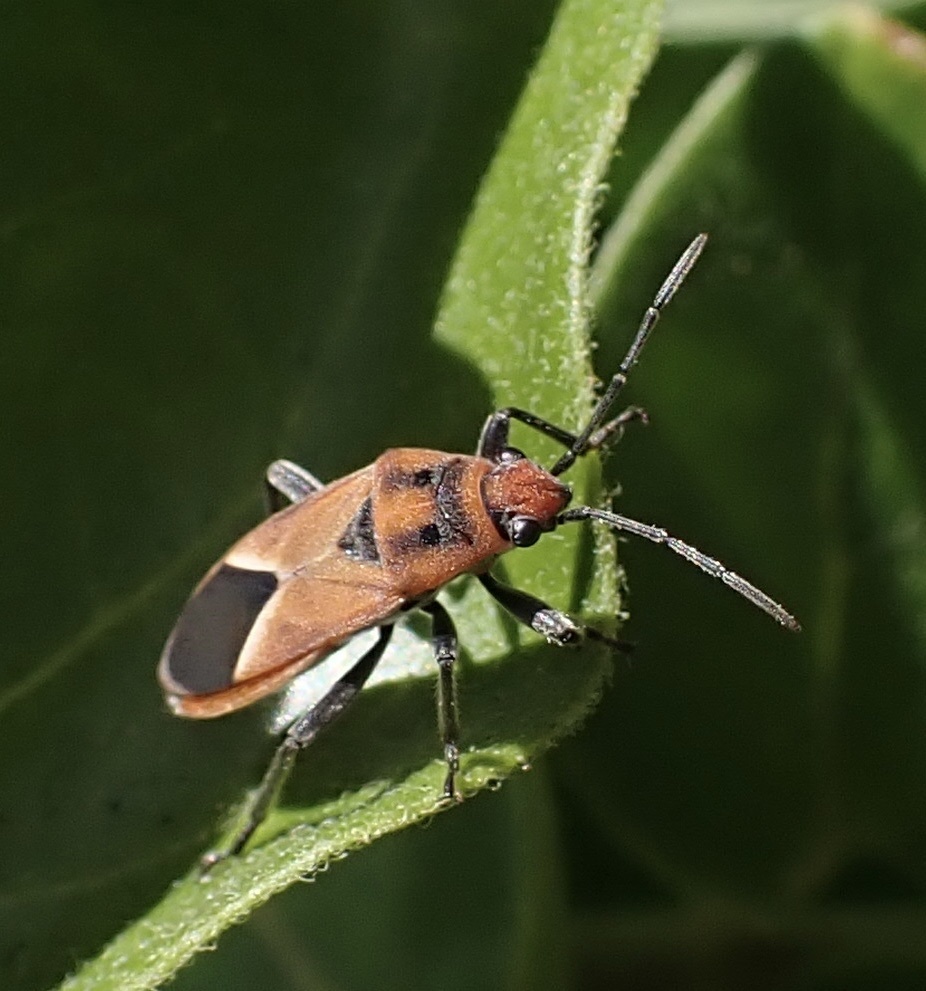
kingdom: Animalia
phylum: Arthropoda
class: Insecta
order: Hemiptera
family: Lygaeidae
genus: Graptostethus
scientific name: Graptostethus servus
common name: Lygaeid bug
